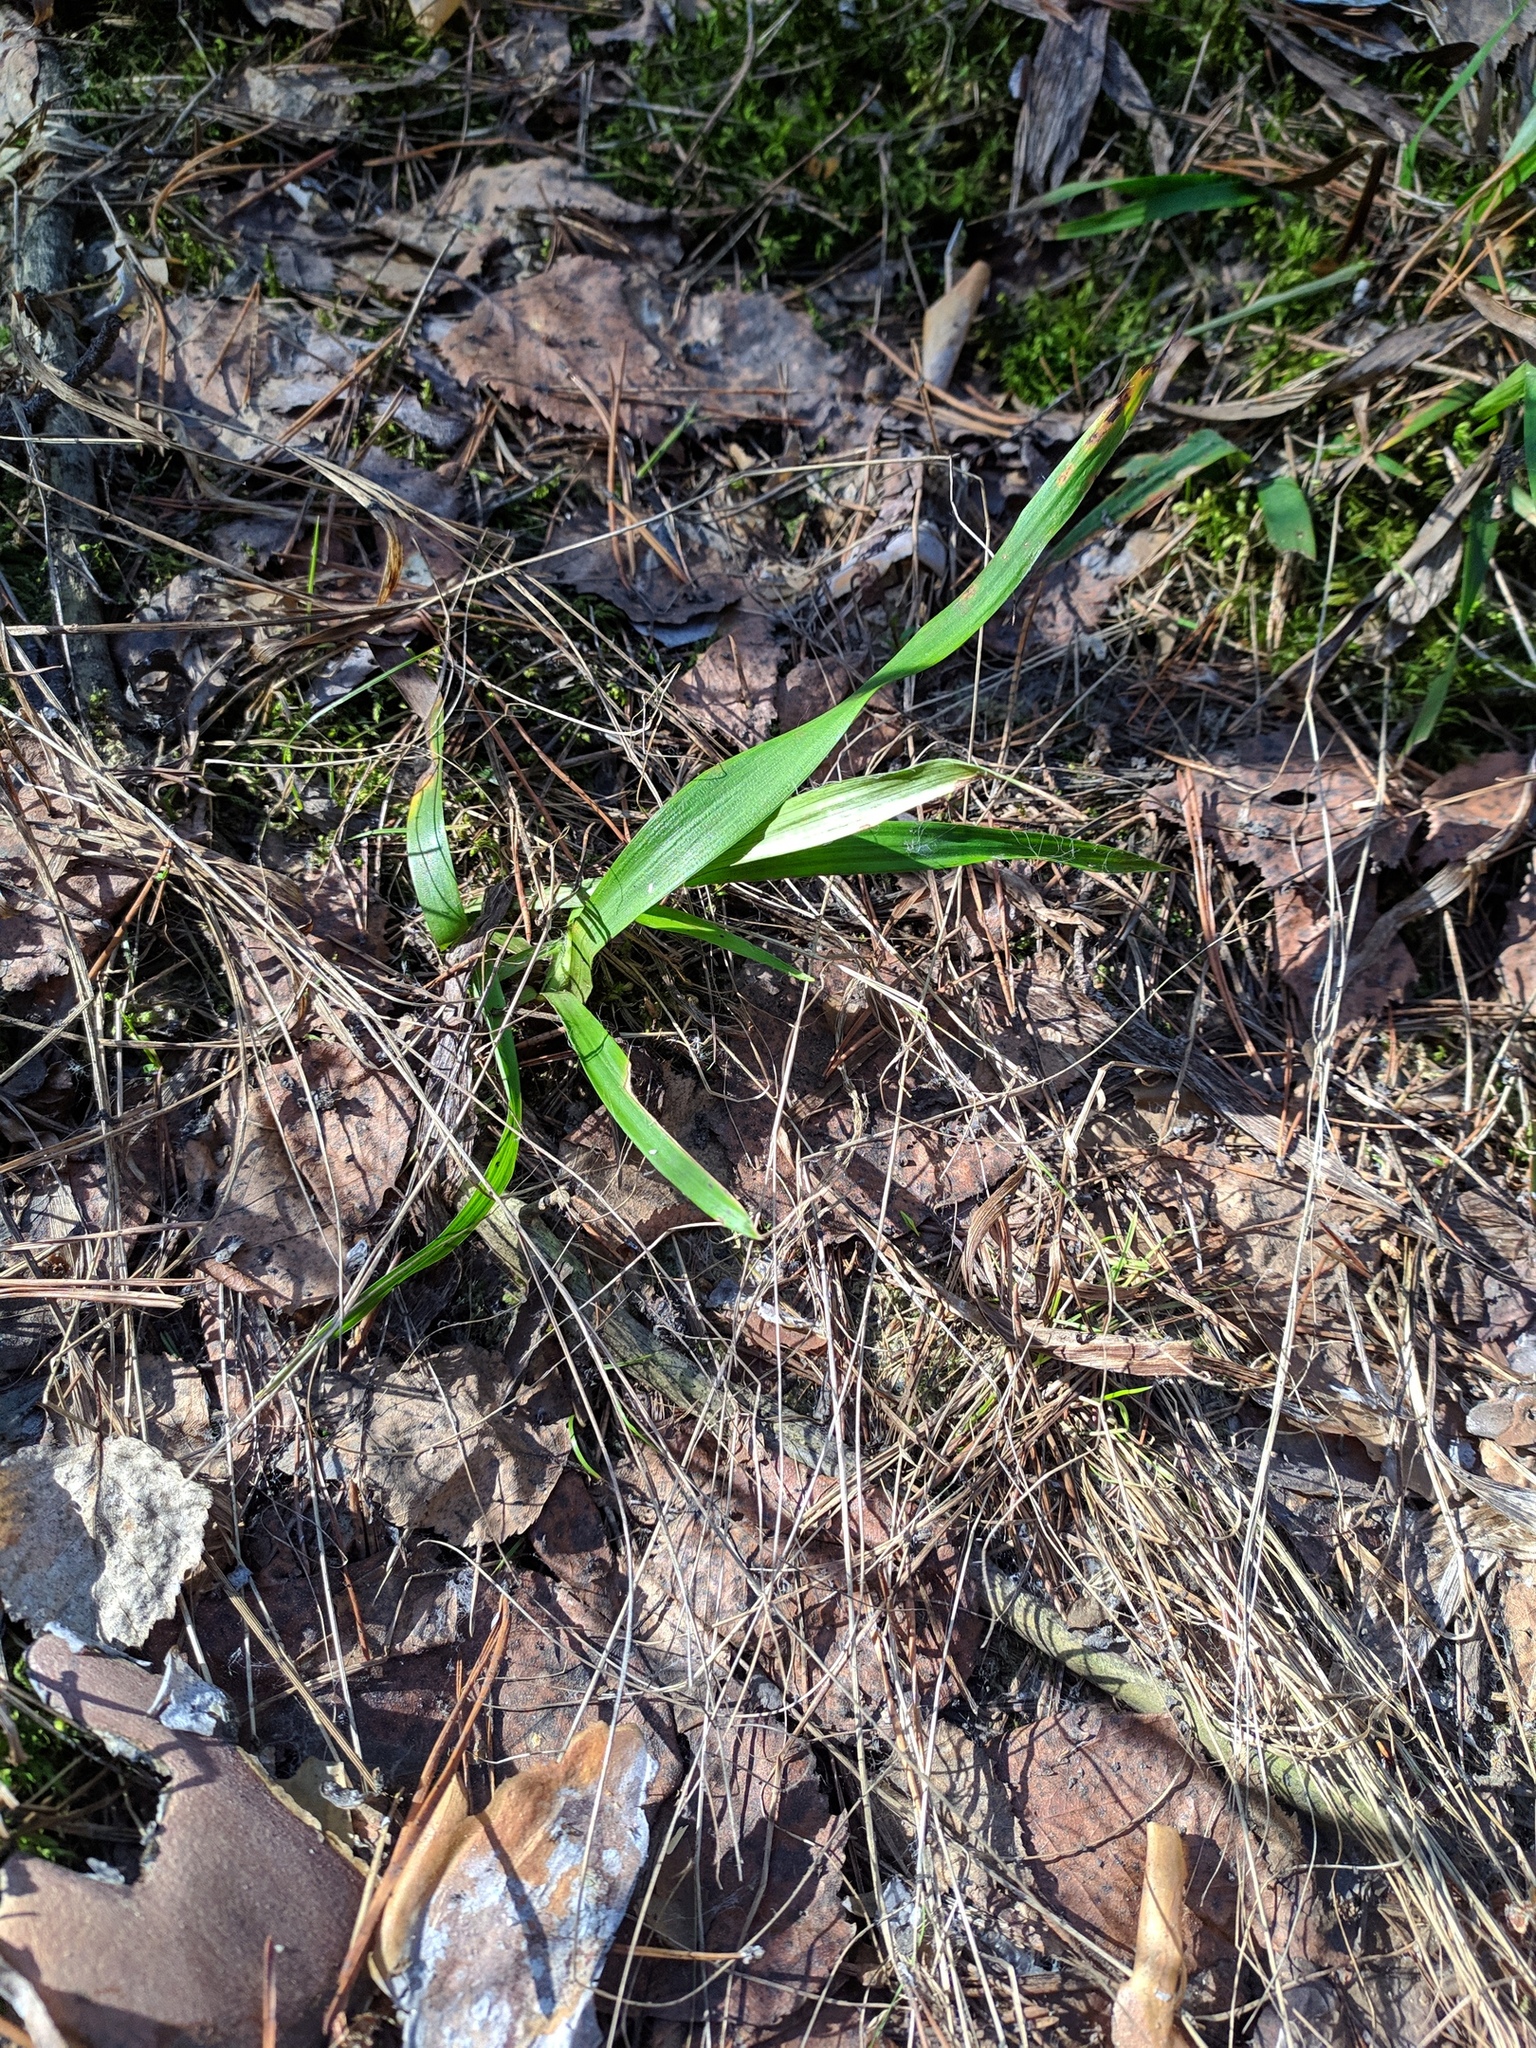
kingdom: Plantae
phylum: Tracheophyta
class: Liliopsida
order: Poales
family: Juncaceae
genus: Luzula
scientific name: Luzula pilosa
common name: Hairy wood-rush
